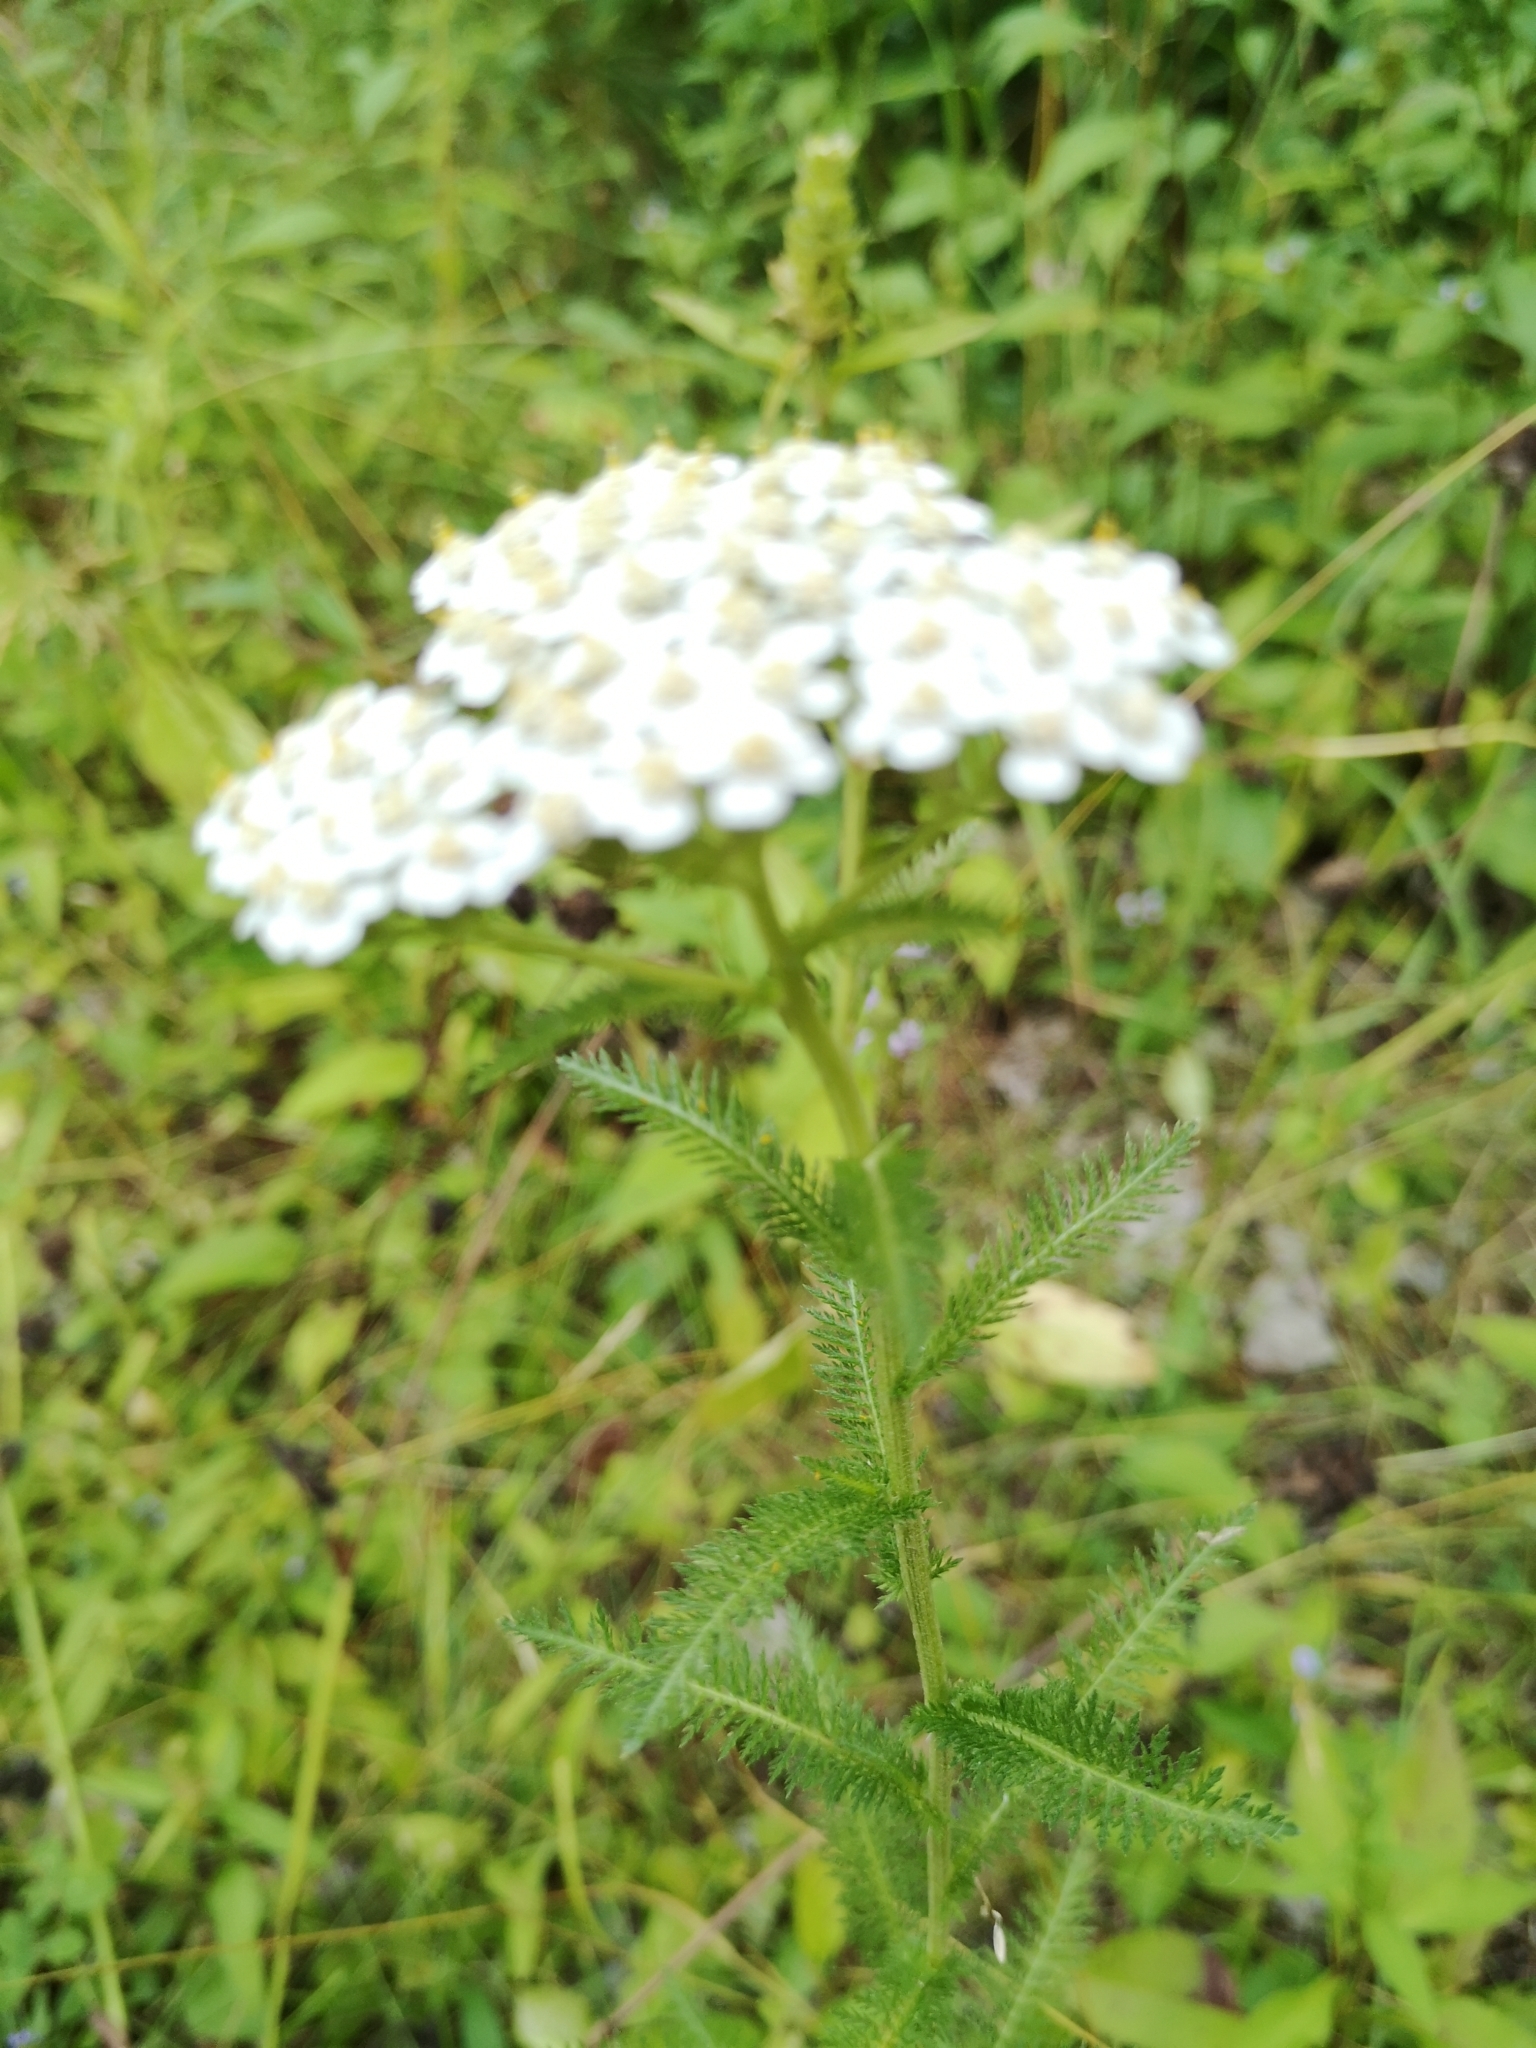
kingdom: Plantae
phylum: Tracheophyta
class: Magnoliopsida
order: Asterales
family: Asteraceae
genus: Achillea
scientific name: Achillea millefolium
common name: Yarrow
